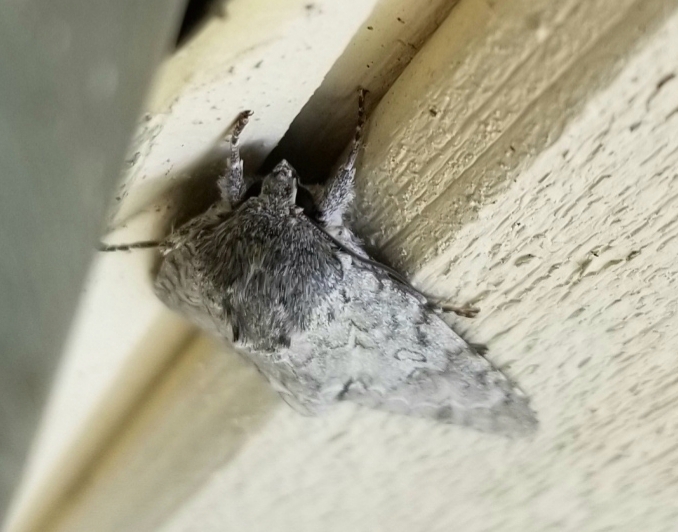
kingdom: Animalia
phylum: Arthropoda
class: Insecta
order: Lepidoptera
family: Noctuidae
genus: Acronicta
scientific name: Acronicta americana
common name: American dagger
